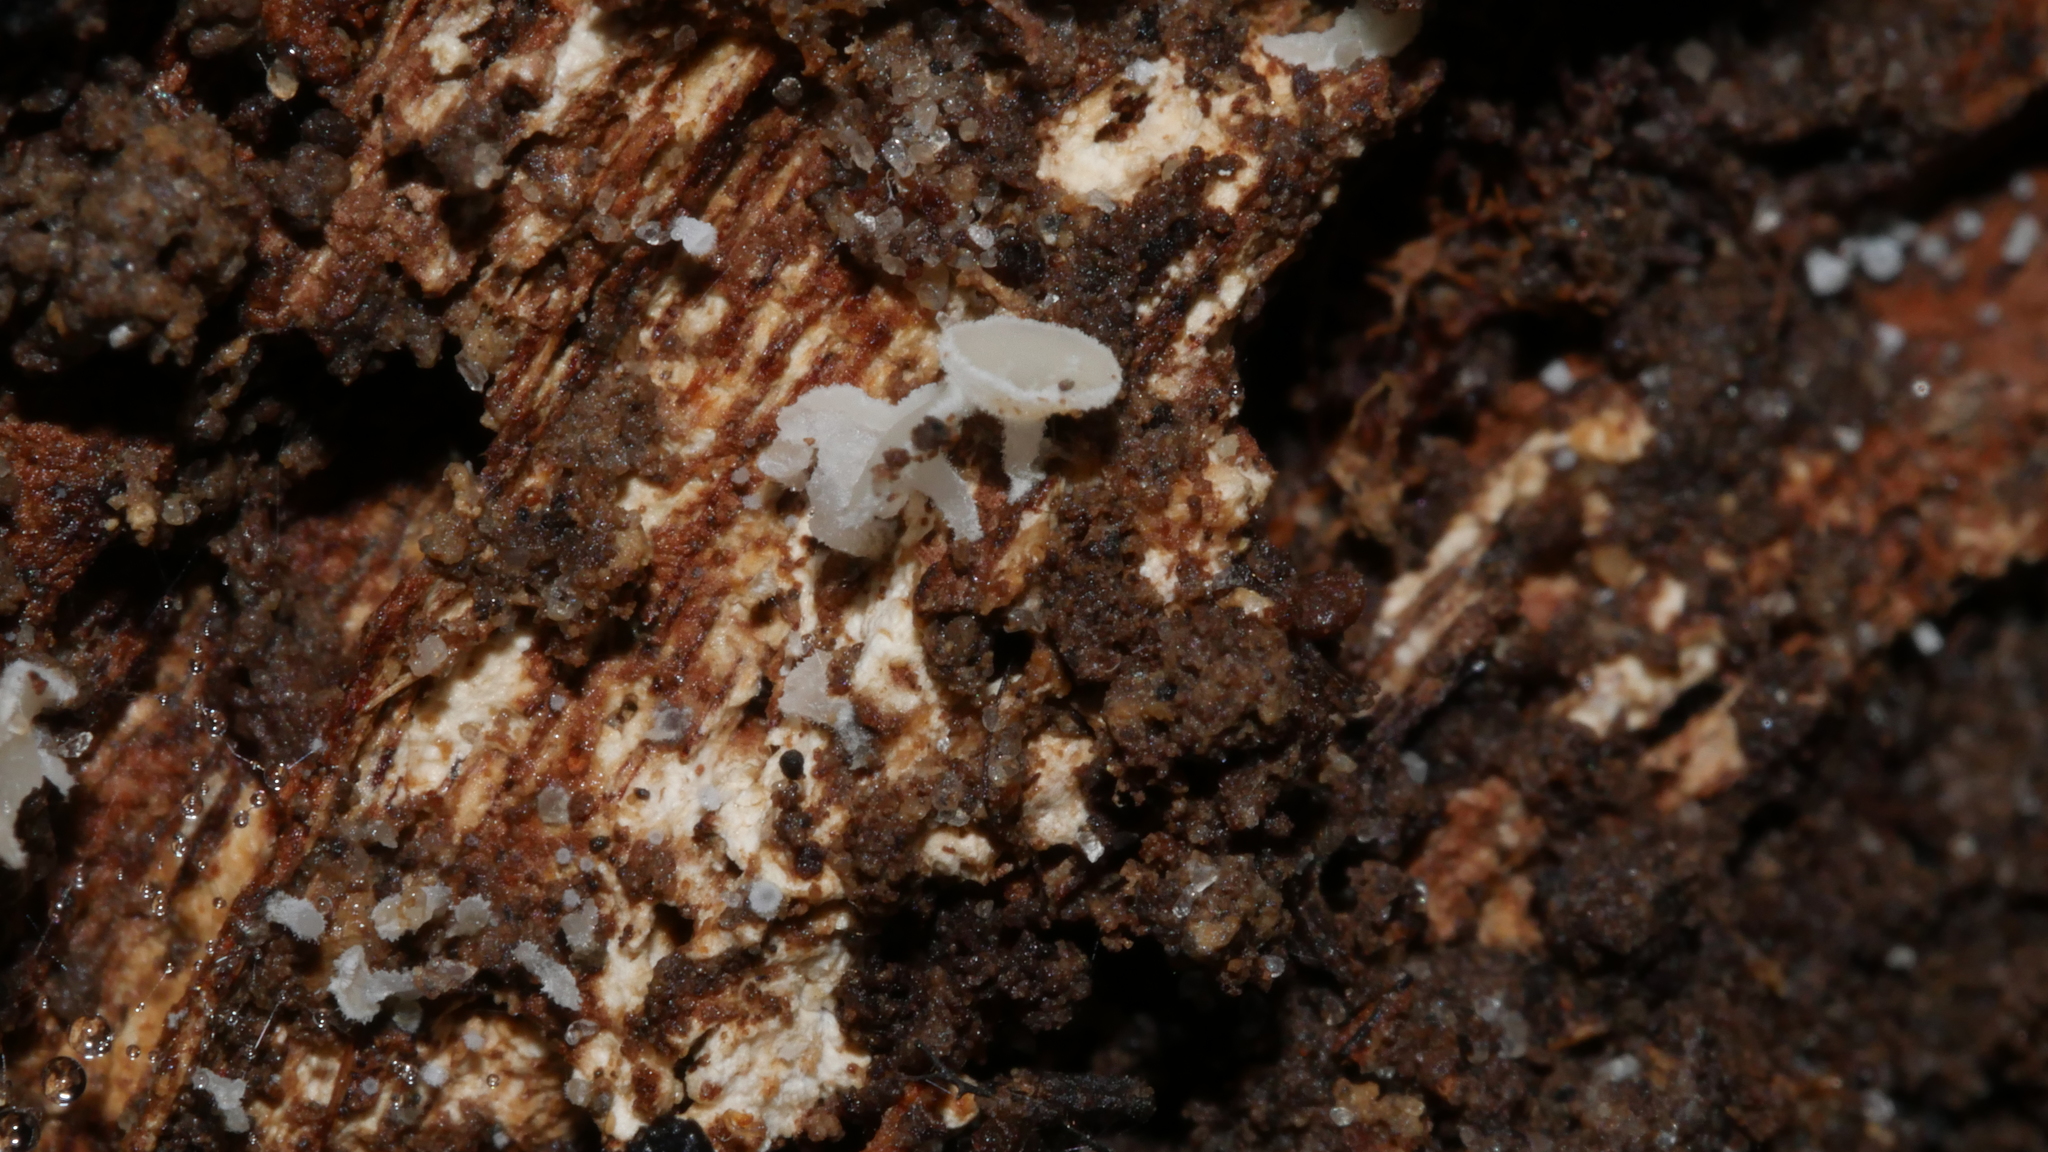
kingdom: Fungi
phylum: Ascomycota
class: Leotiomycetes
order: Helotiales
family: Lachnaceae
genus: Lachnum
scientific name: Lachnum virgineum
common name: Snowy disco
